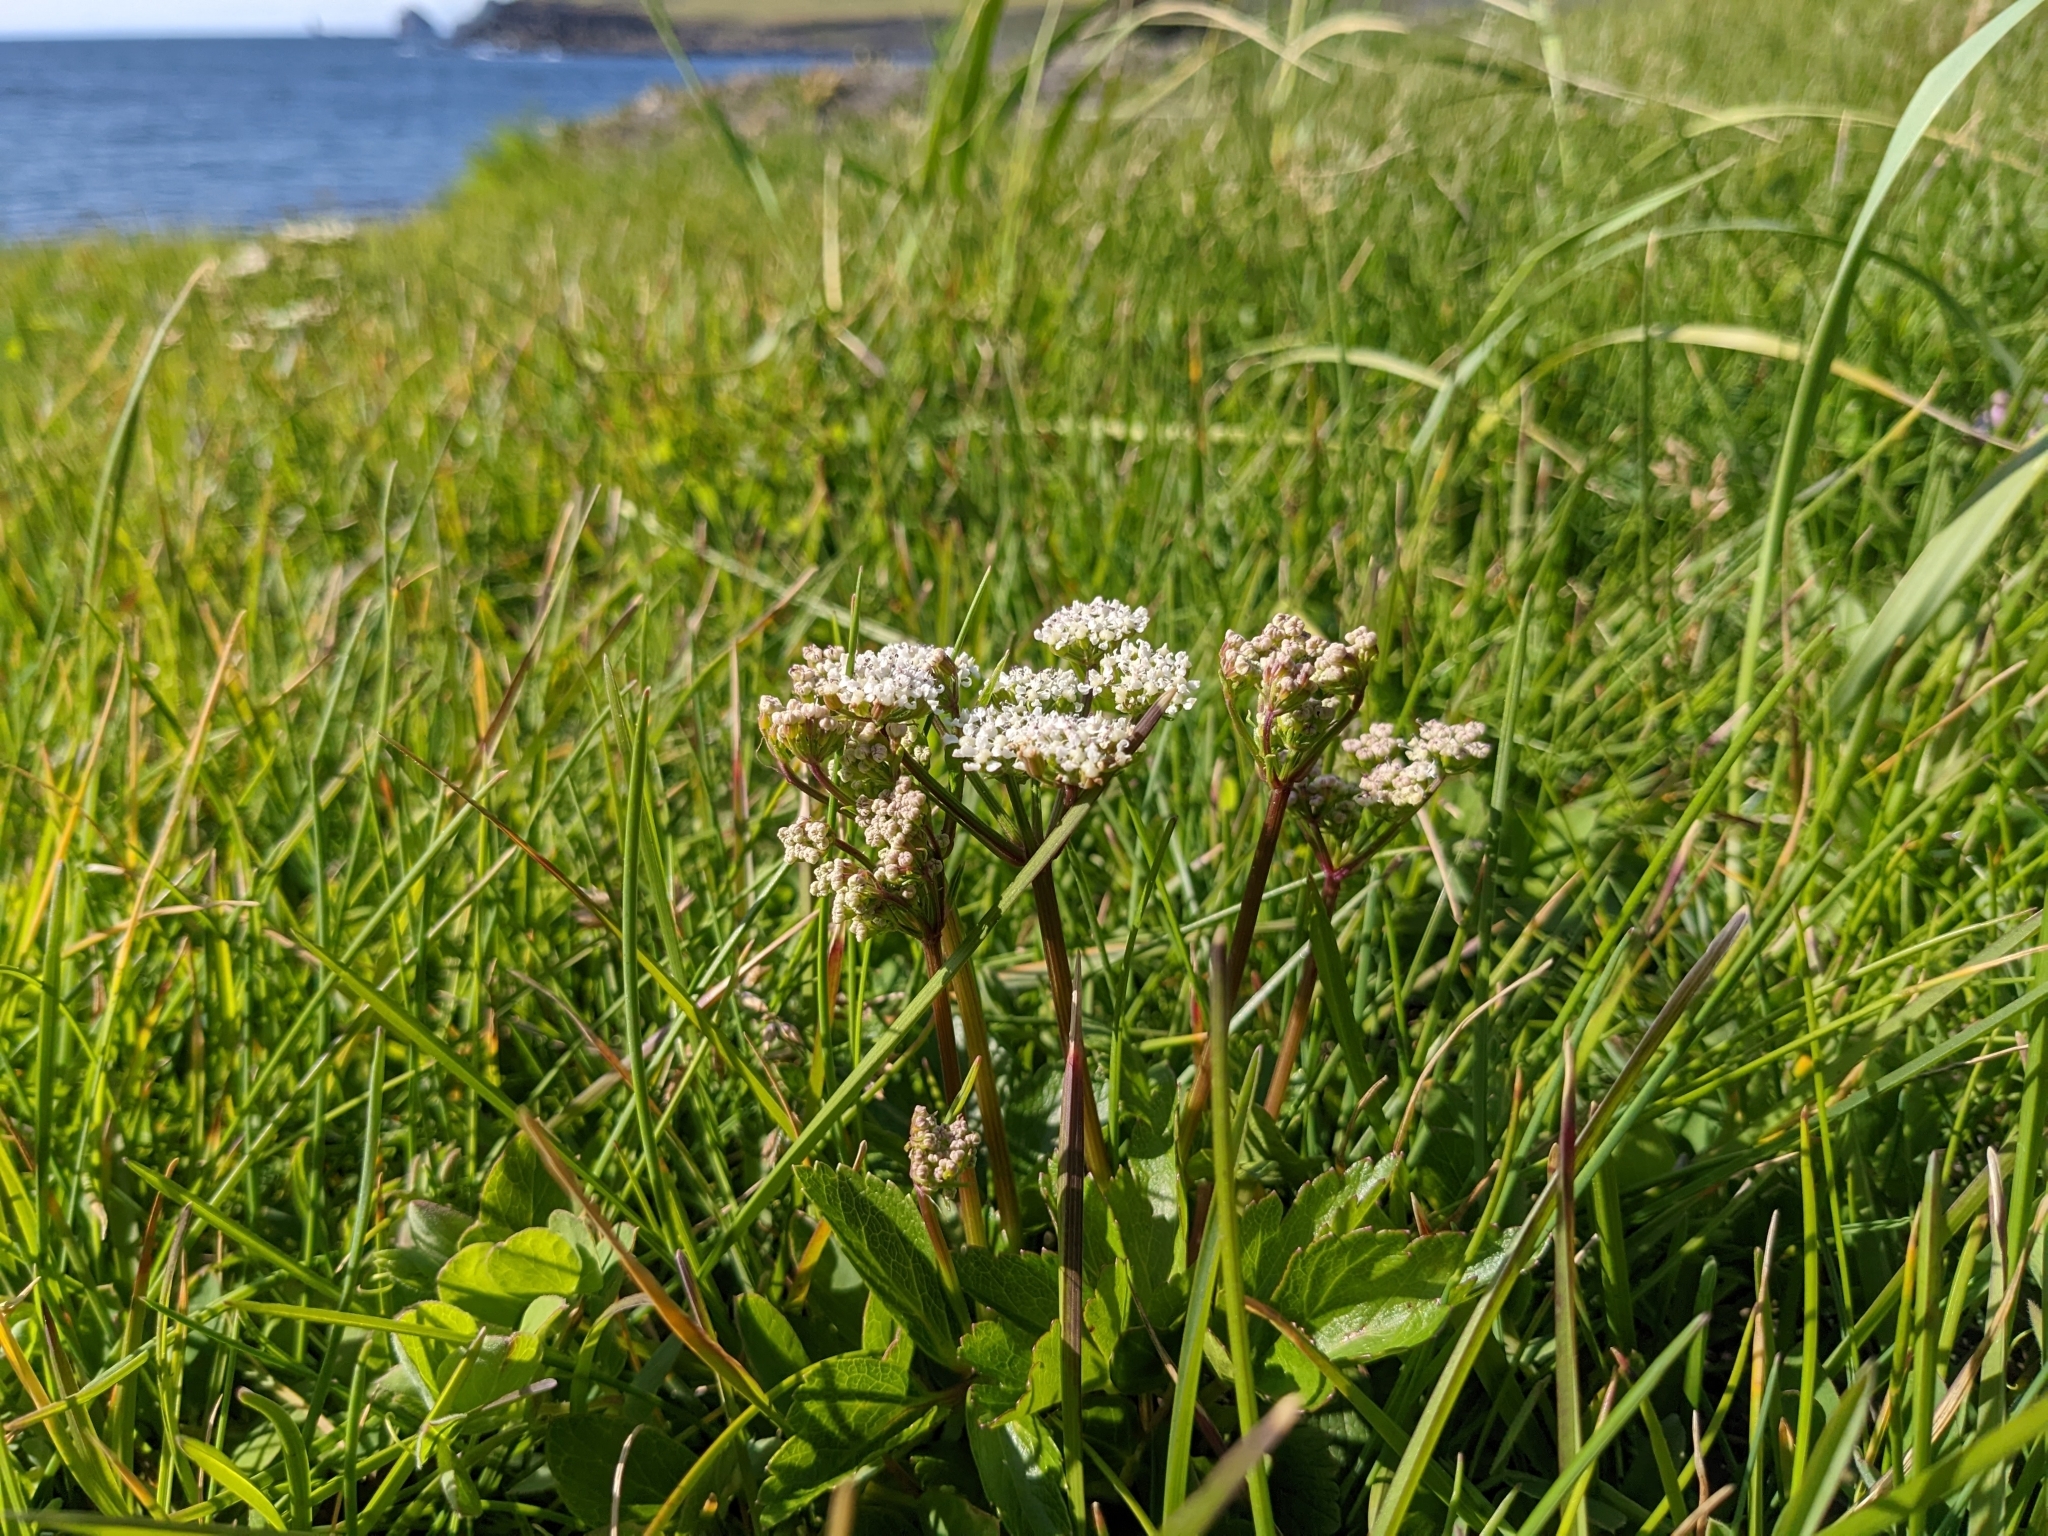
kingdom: Plantae
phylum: Tracheophyta
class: Magnoliopsida
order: Apiales
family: Apiaceae
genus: Ligusticum
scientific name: Ligusticum scothicum
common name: Beach lovage
